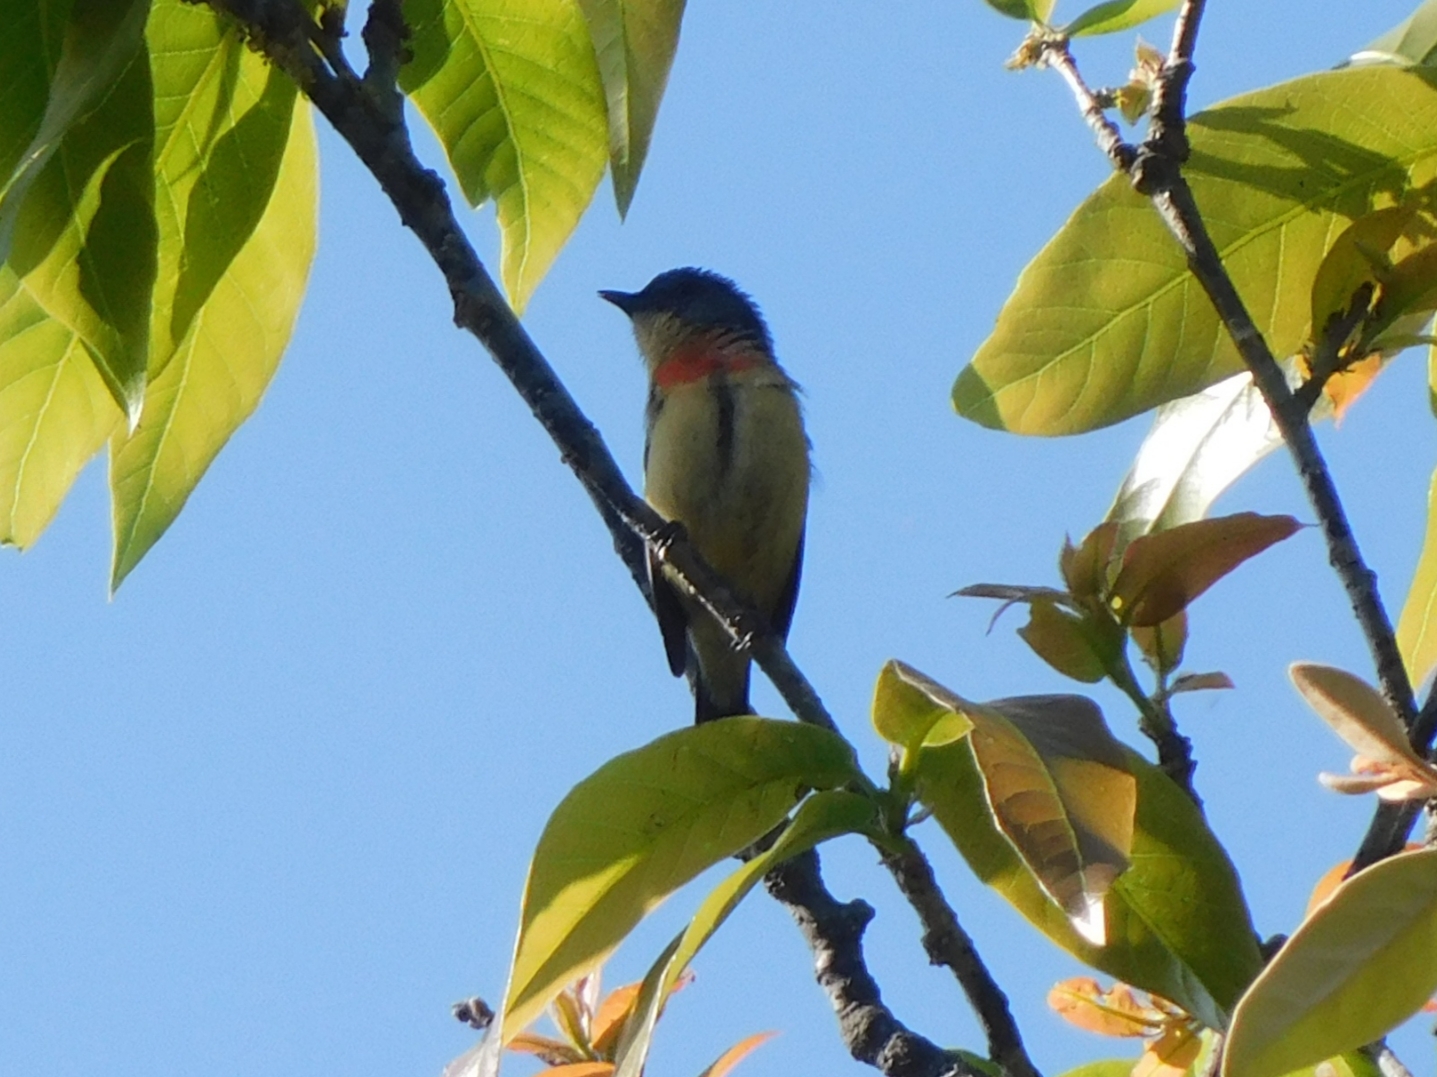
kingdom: Animalia
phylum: Chordata
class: Aves
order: Passeriformes
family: Dicaeidae
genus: Dicaeum
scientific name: Dicaeum ignipectus
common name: Fire-breasted flowerpecker
